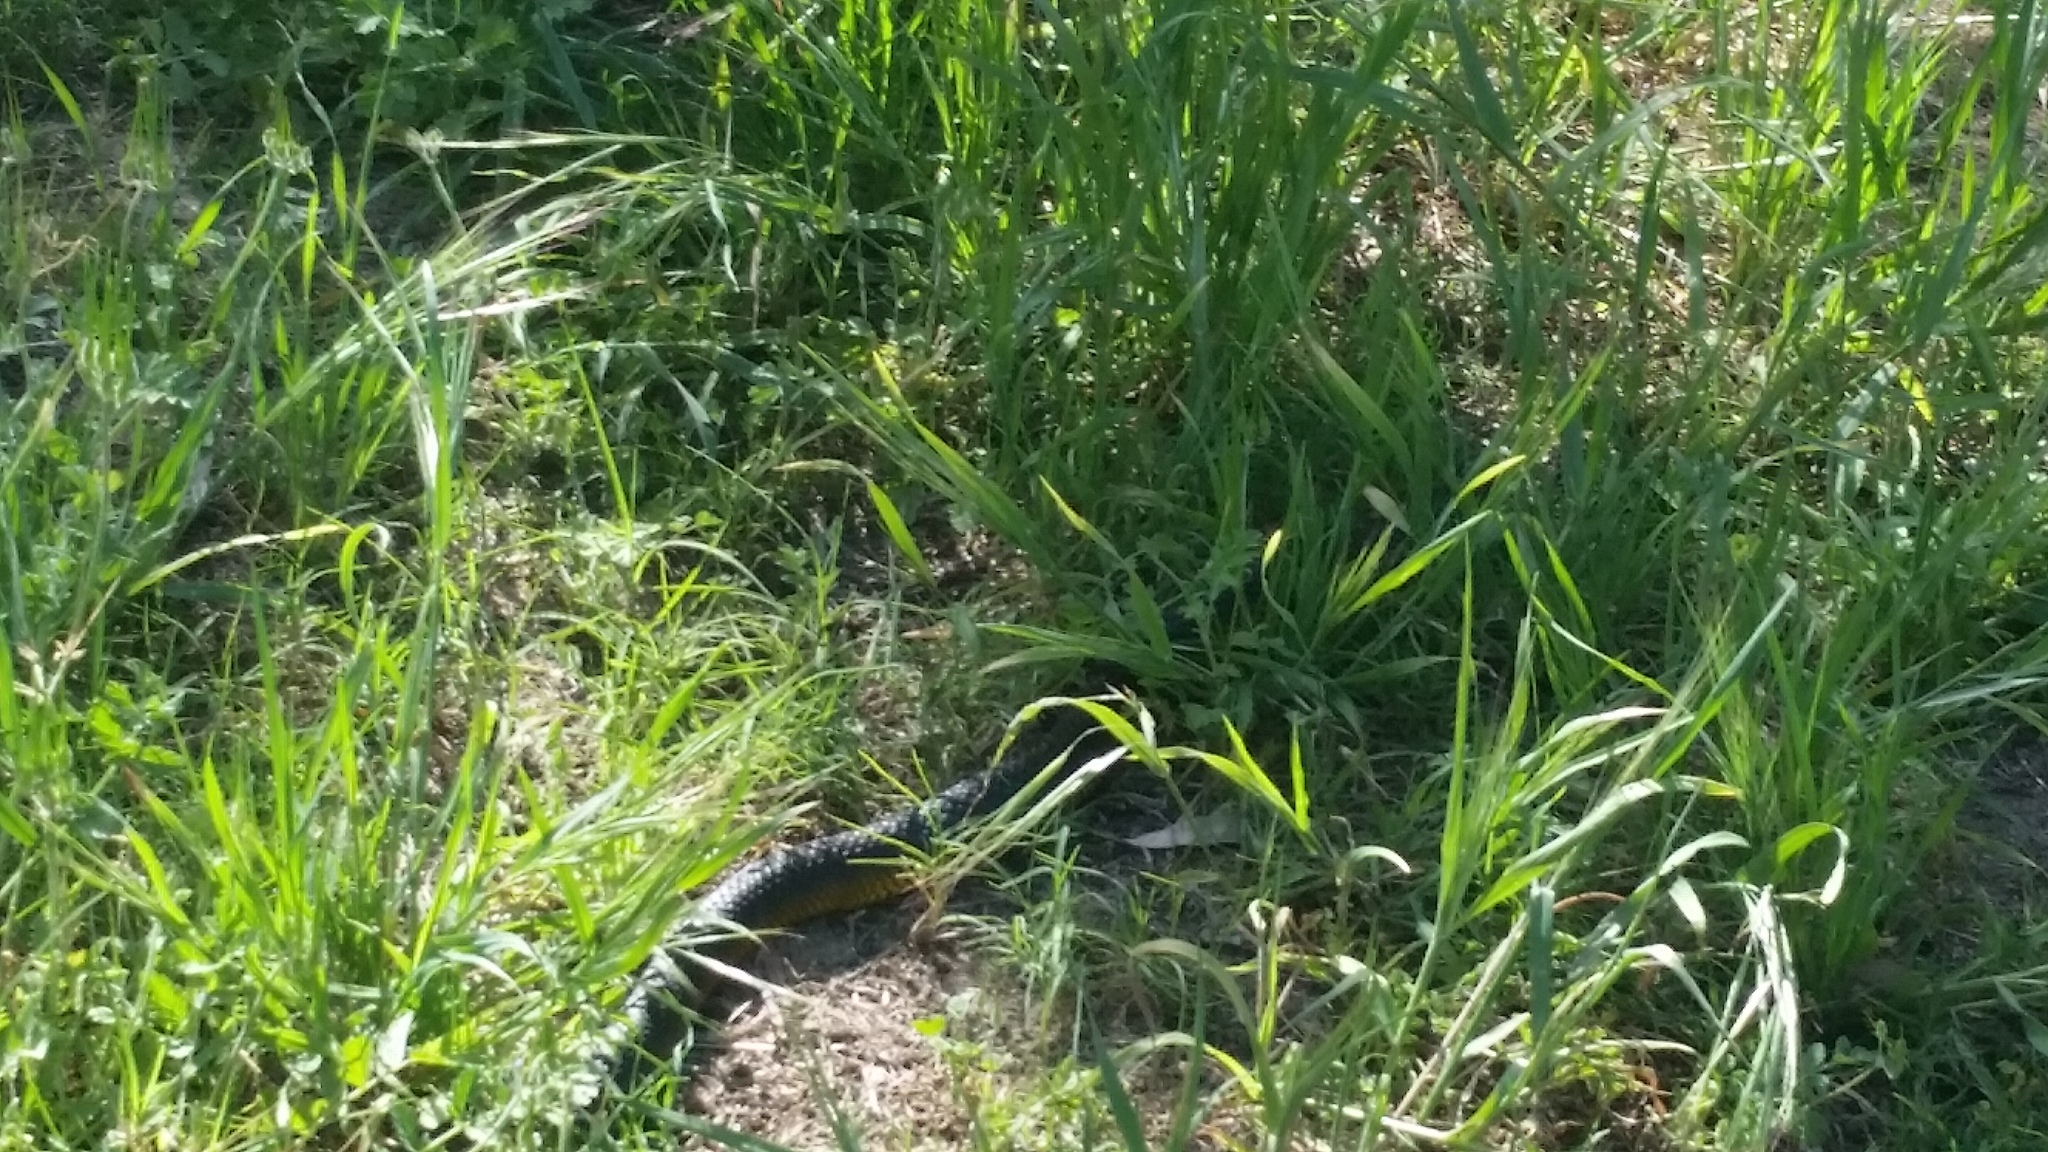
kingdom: Animalia
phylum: Chordata
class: Squamata
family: Elapidae
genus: Notechis
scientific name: Notechis scutatus
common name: Mainland tiger snake
